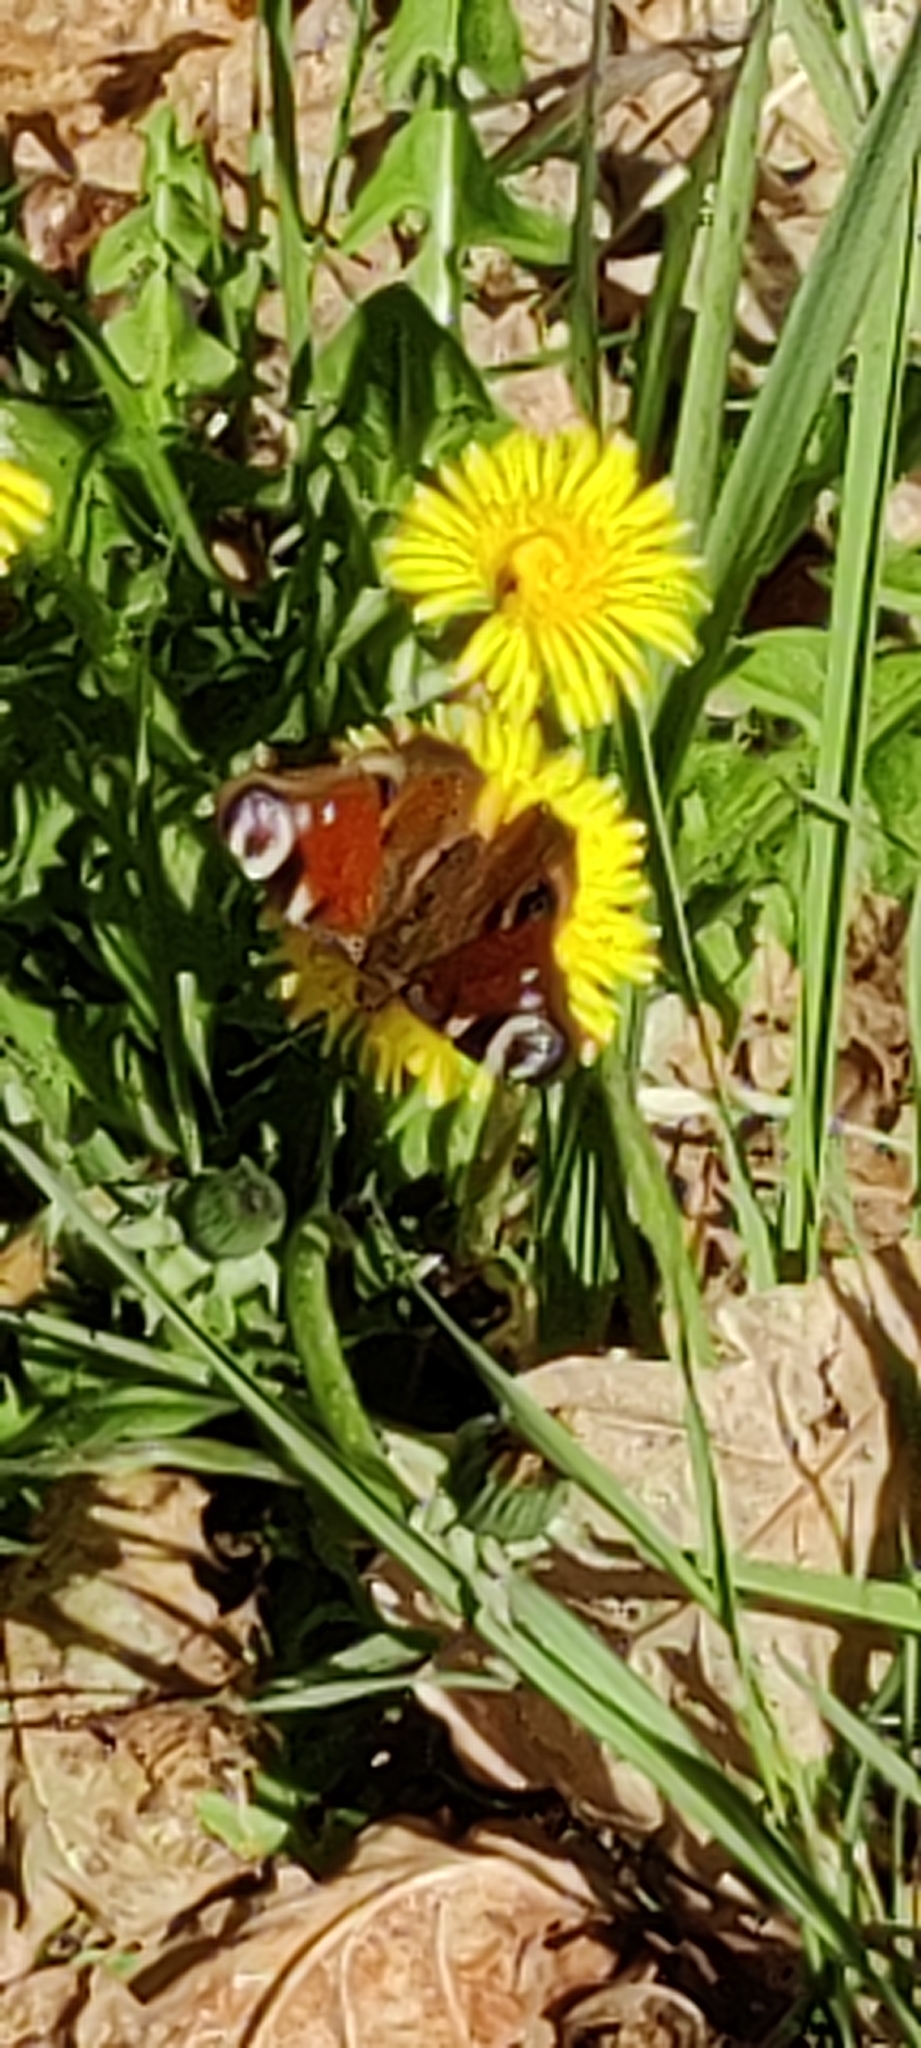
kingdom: Animalia
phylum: Arthropoda
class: Insecta
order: Lepidoptera
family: Nymphalidae
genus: Aglais
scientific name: Aglais io
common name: Peacock
